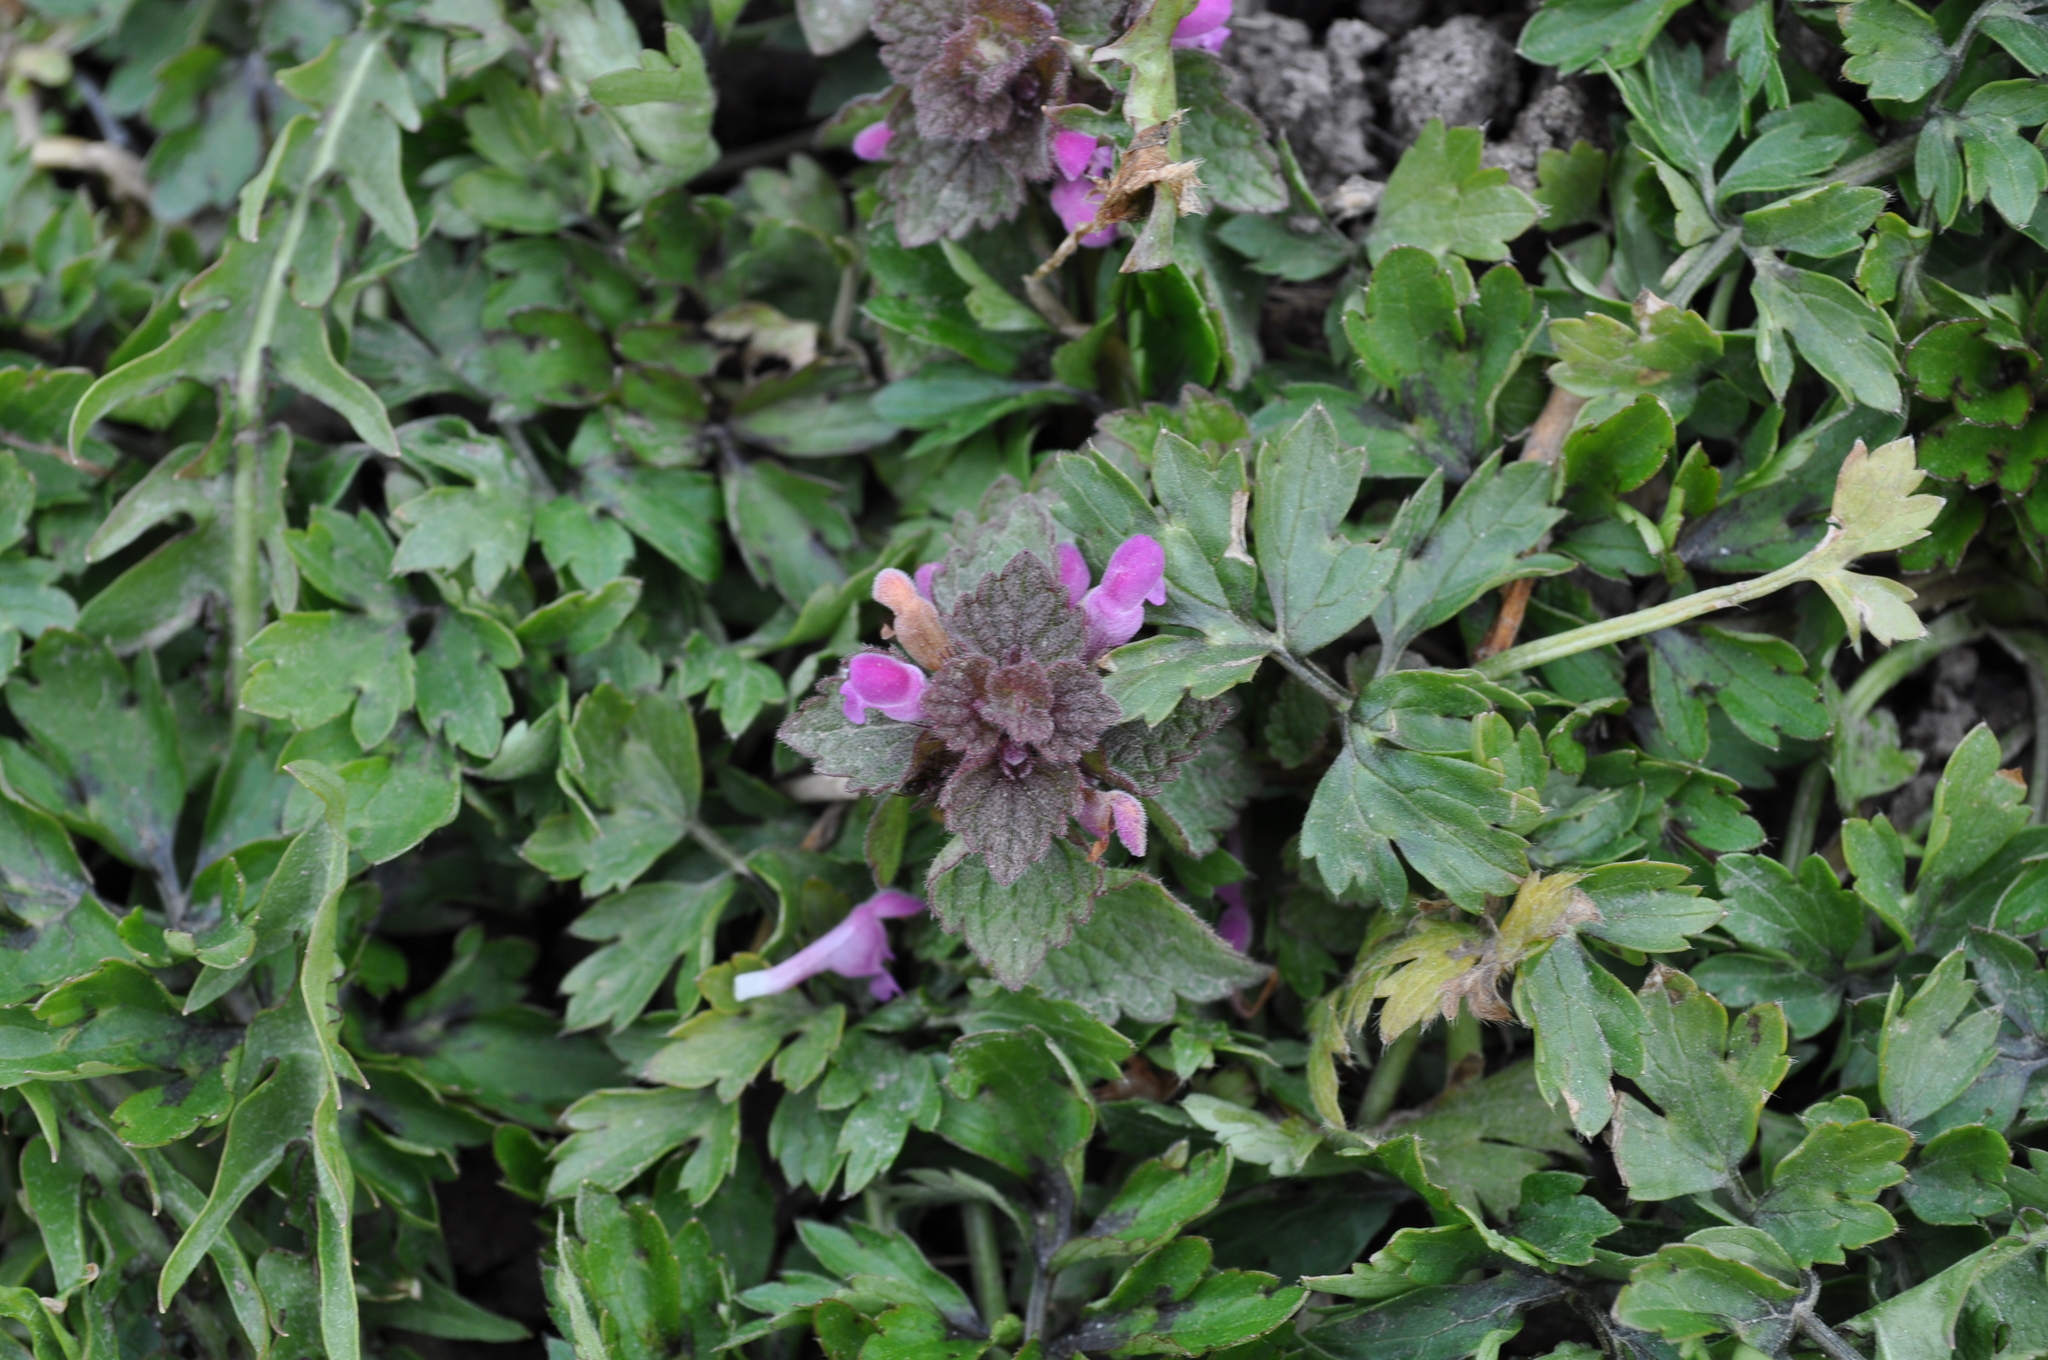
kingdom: Plantae
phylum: Tracheophyta
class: Magnoliopsida
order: Lamiales
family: Lamiaceae
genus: Lamium
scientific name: Lamium purpureum
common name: Red dead-nettle
